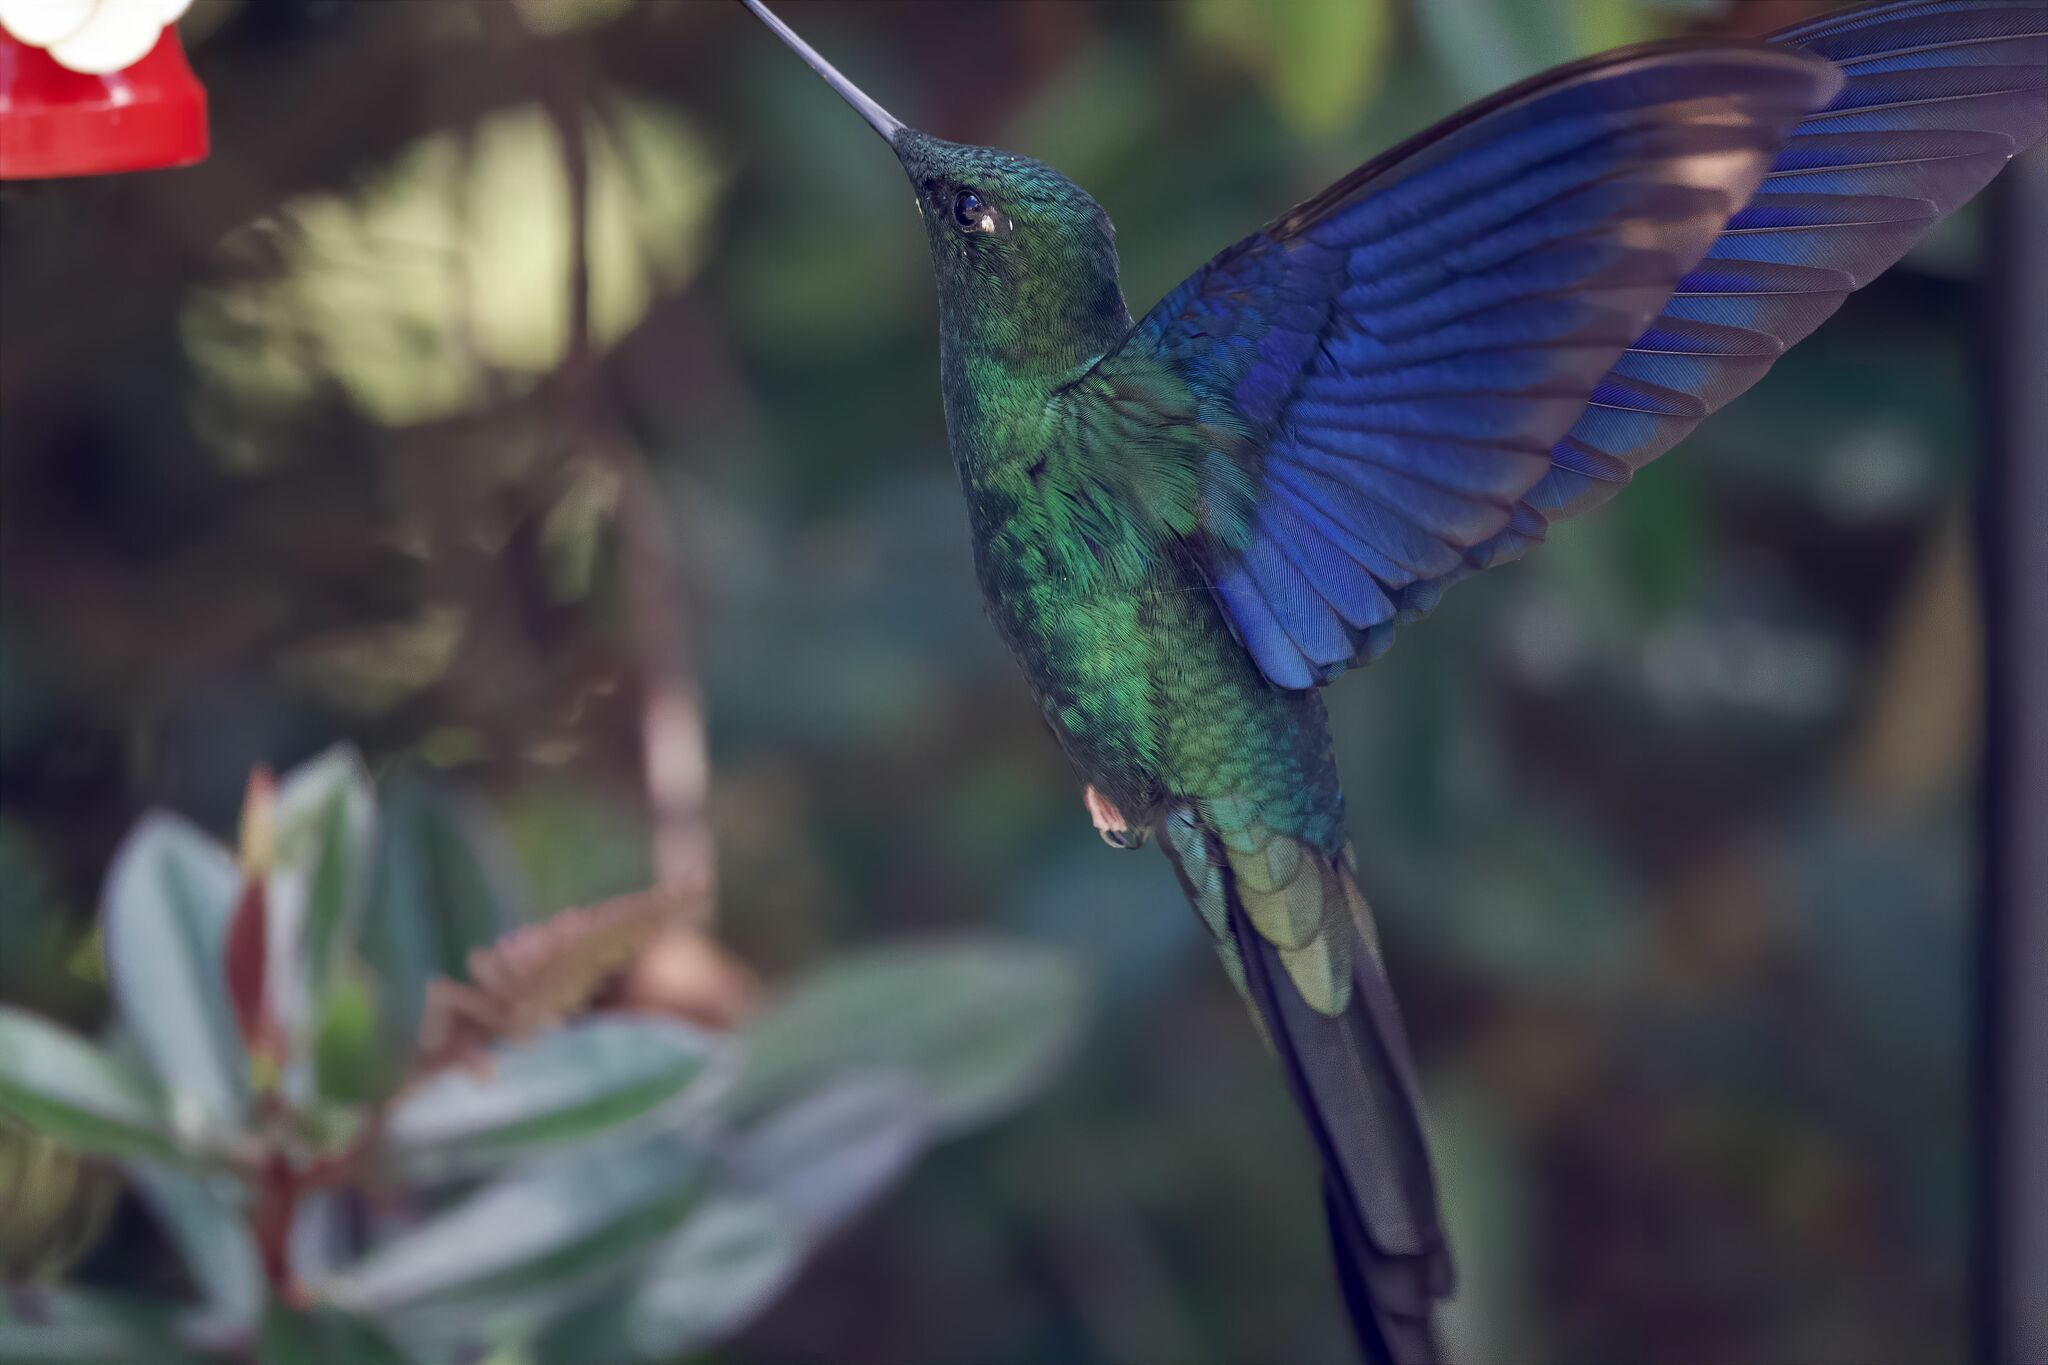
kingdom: Animalia
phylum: Chordata
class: Aves
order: Apodiformes
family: Trochilidae
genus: Pterophanes
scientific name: Pterophanes cyanopterus
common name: Great sapphirewing
